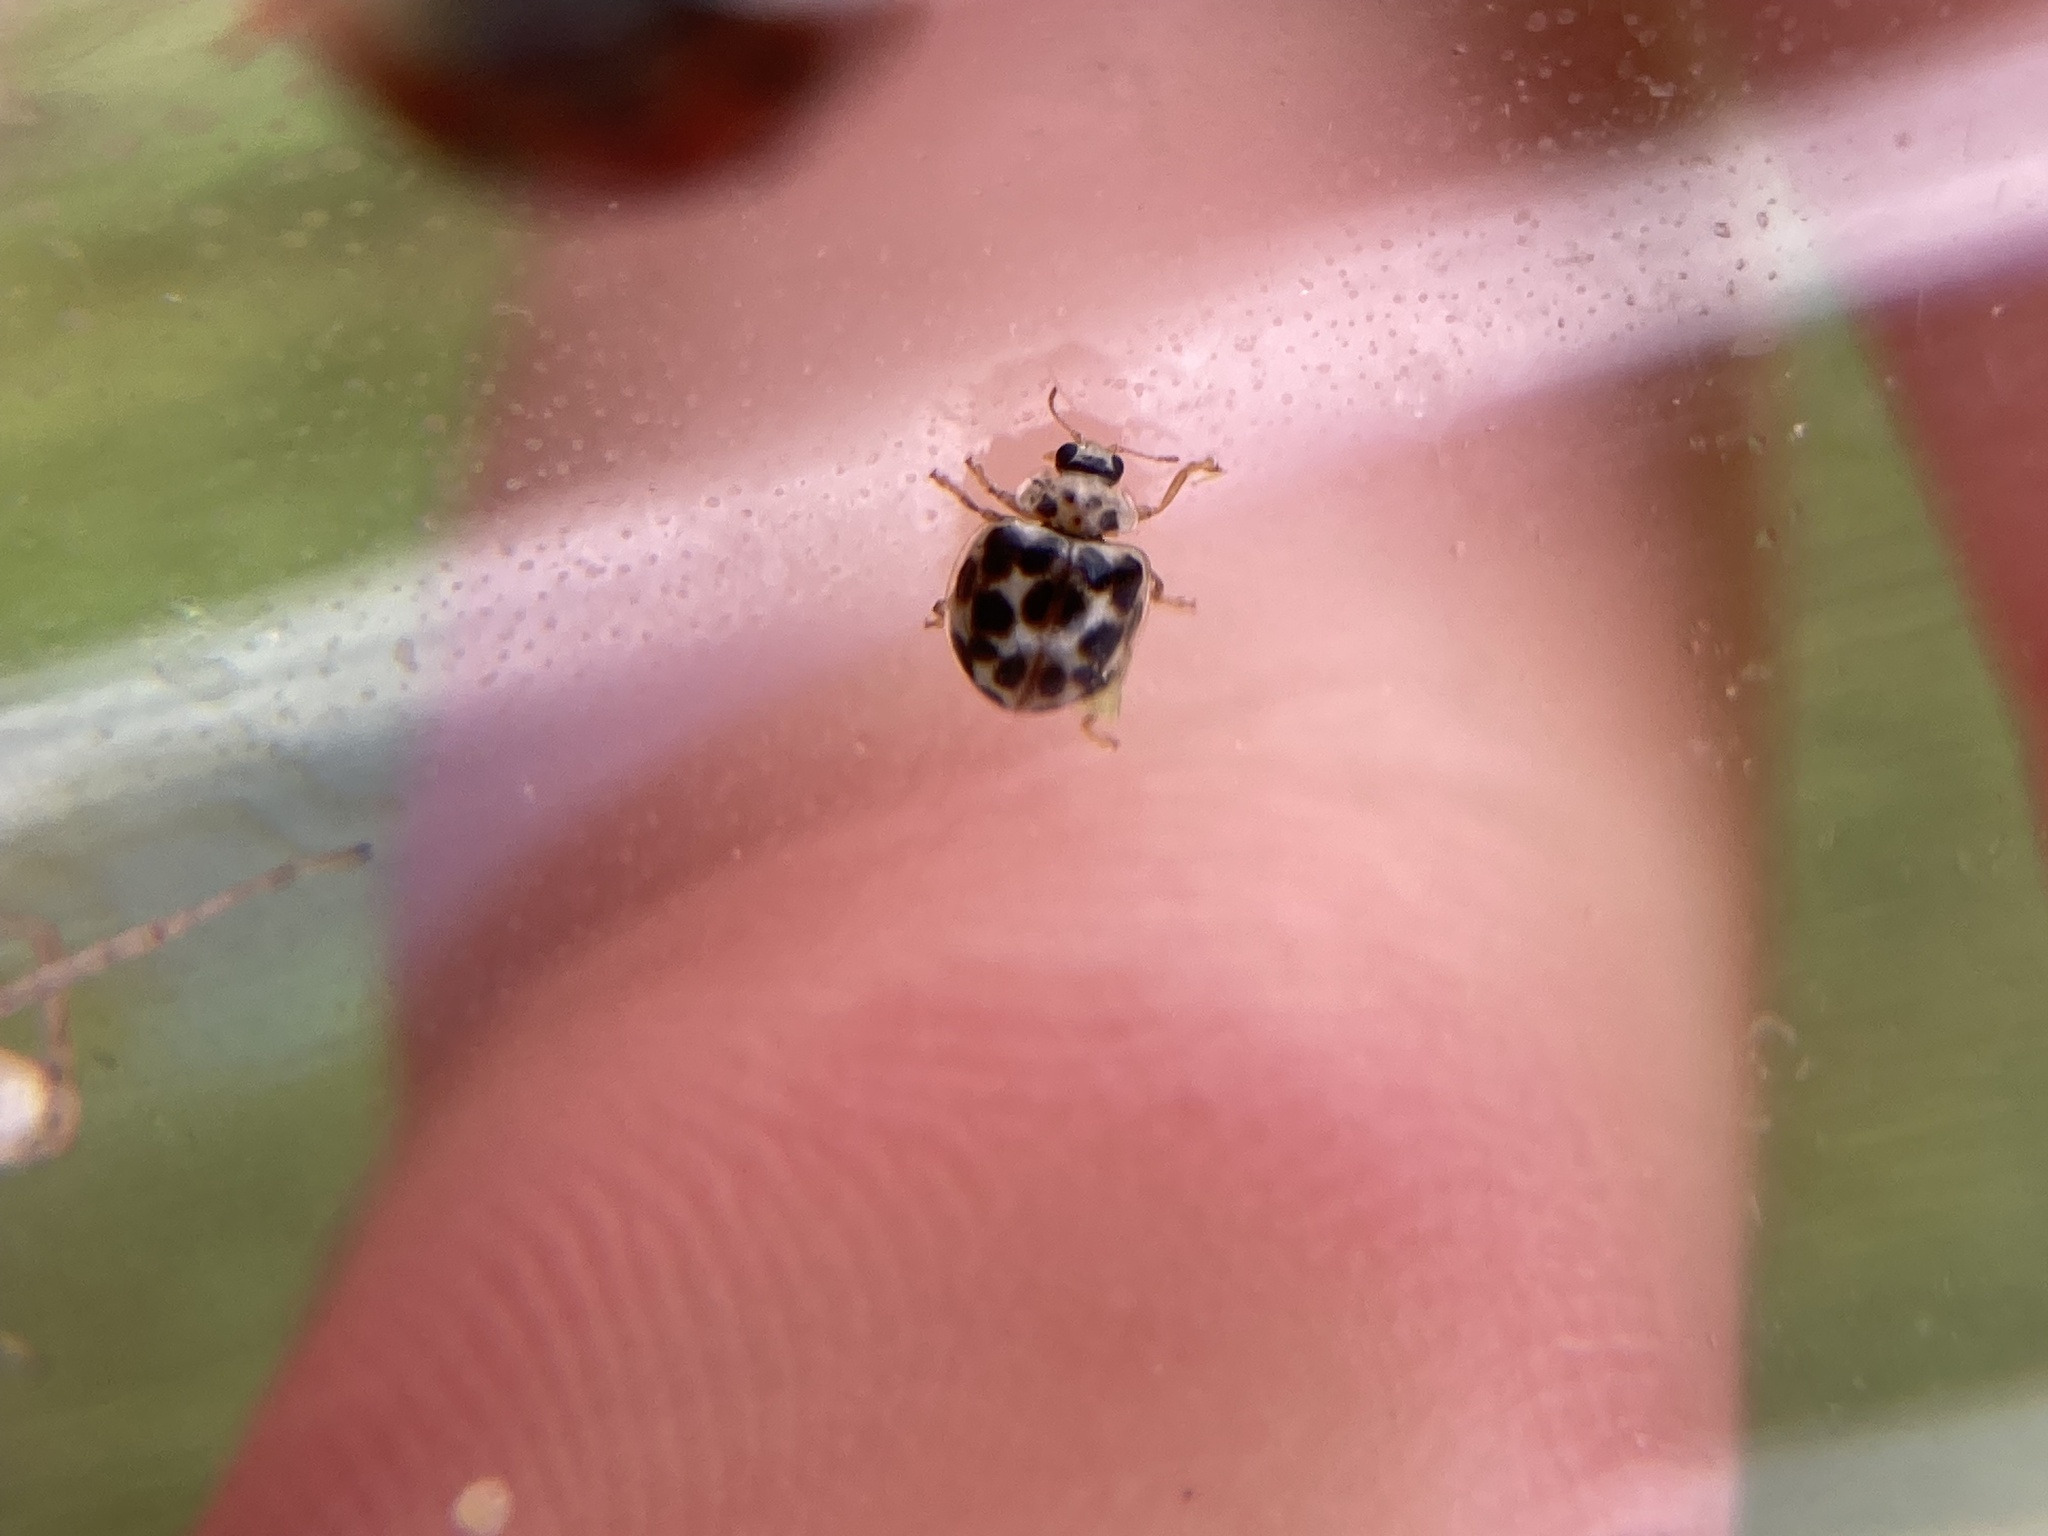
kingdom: Animalia
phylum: Arthropoda
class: Insecta
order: Coleoptera
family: Coccinellidae
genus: Psyllobora
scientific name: Psyllobora vigintimaculata
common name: Ladybird beetle
